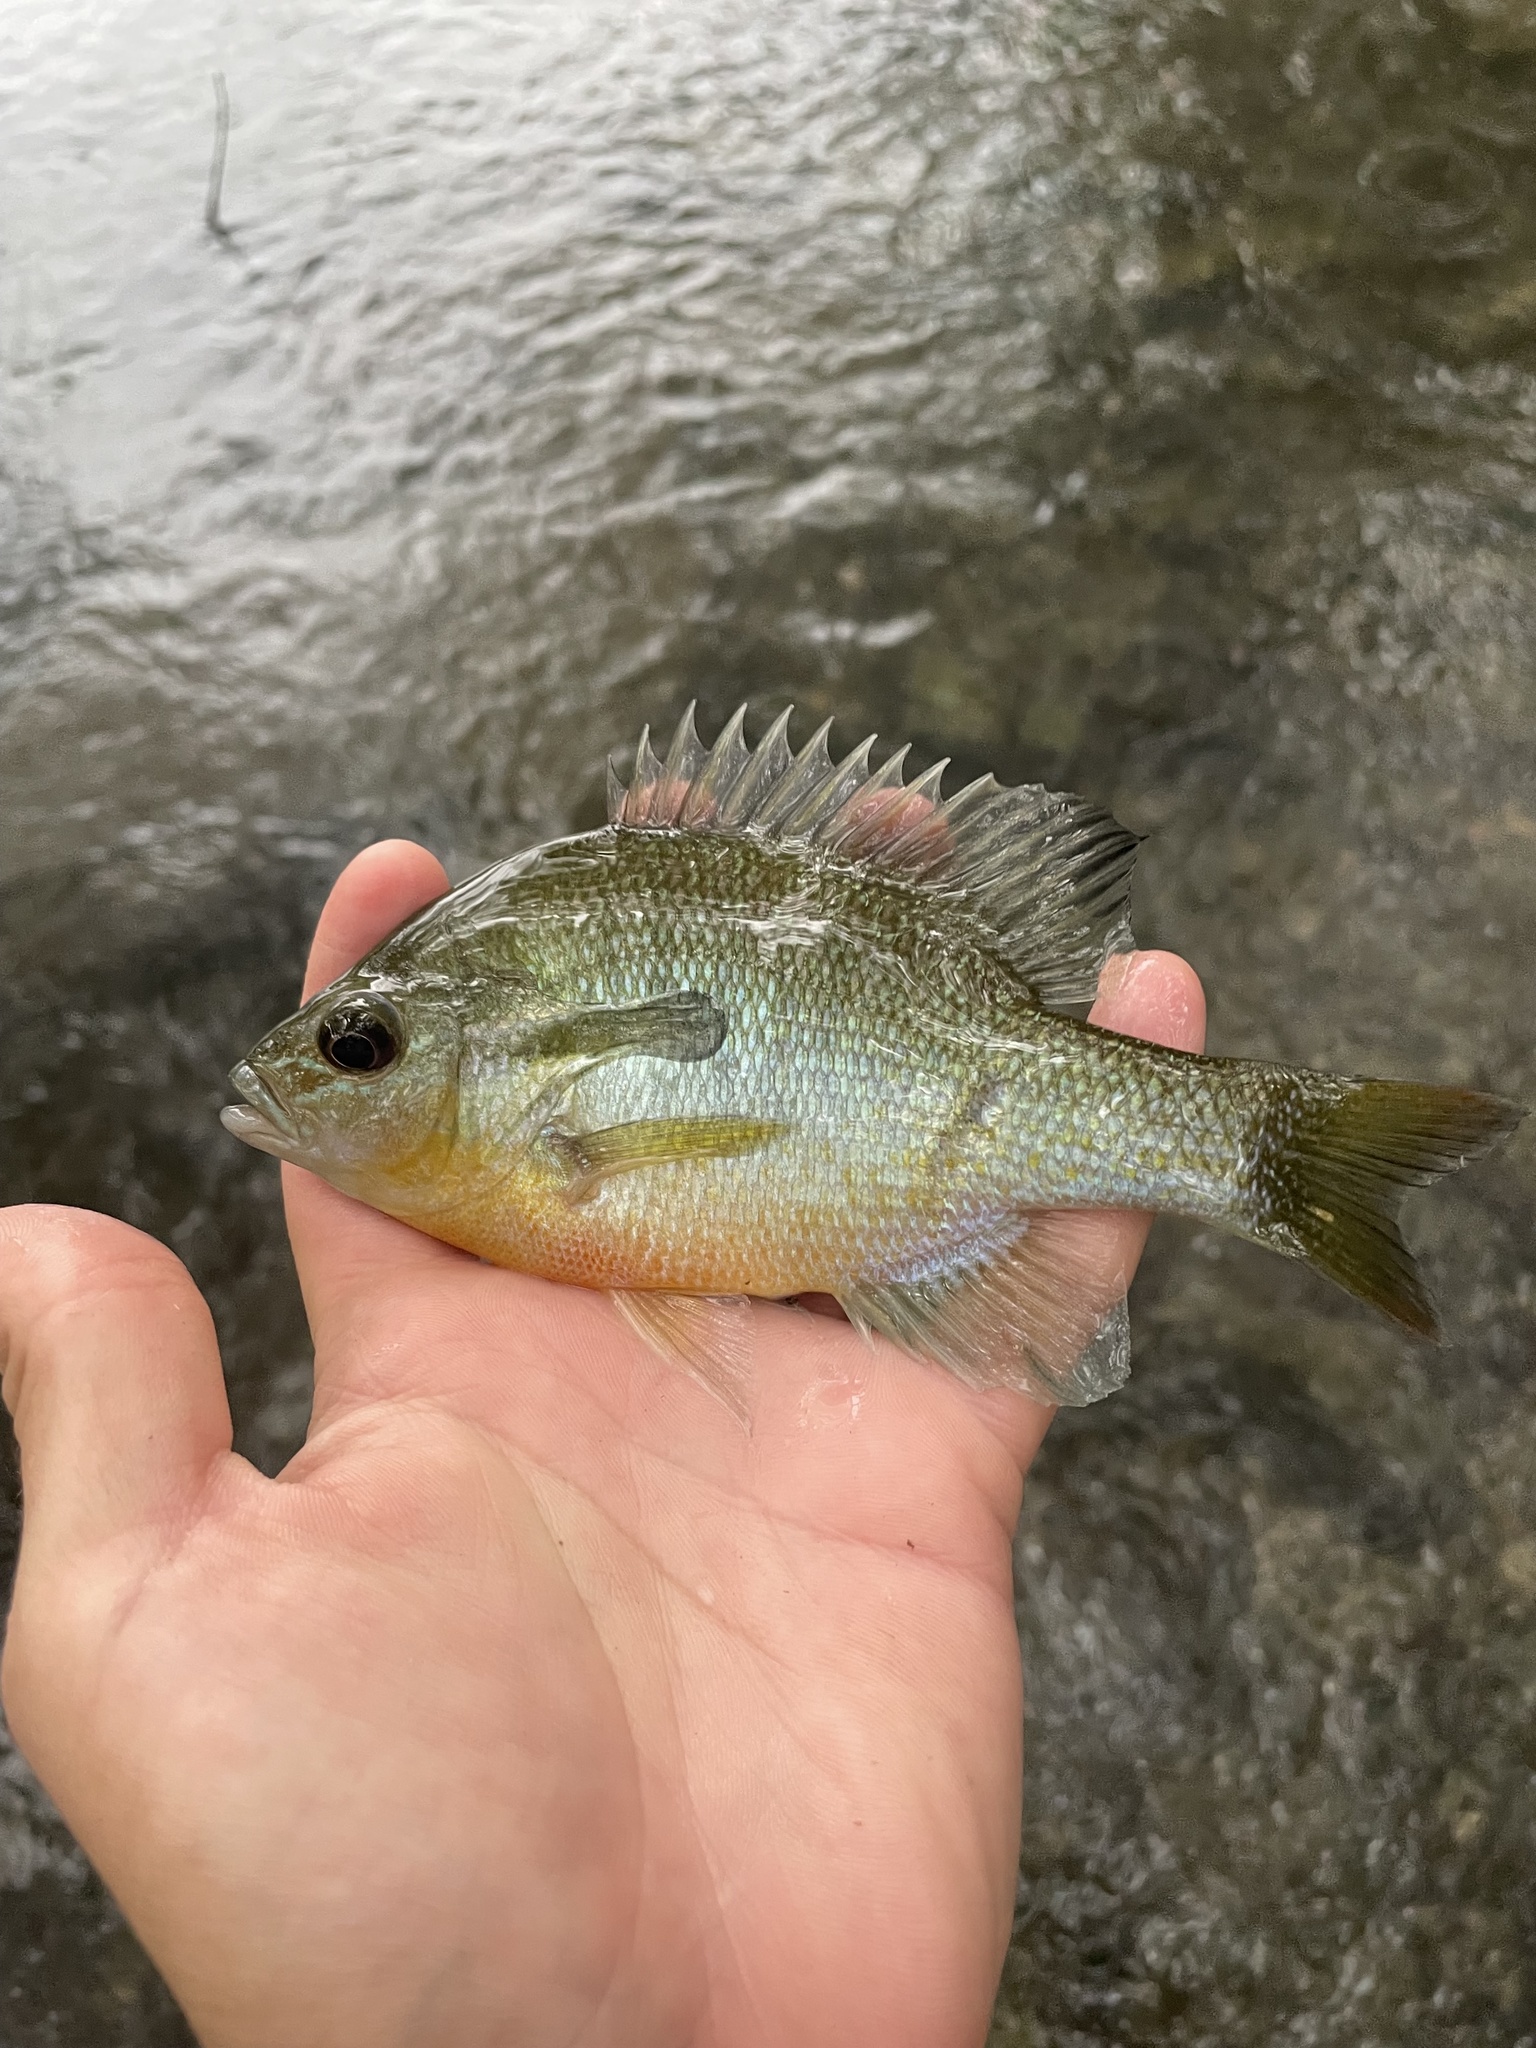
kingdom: Animalia
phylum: Chordata
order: Perciformes
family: Centrarchidae
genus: Lepomis
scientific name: Lepomis auritus
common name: Redbreast sunfish
